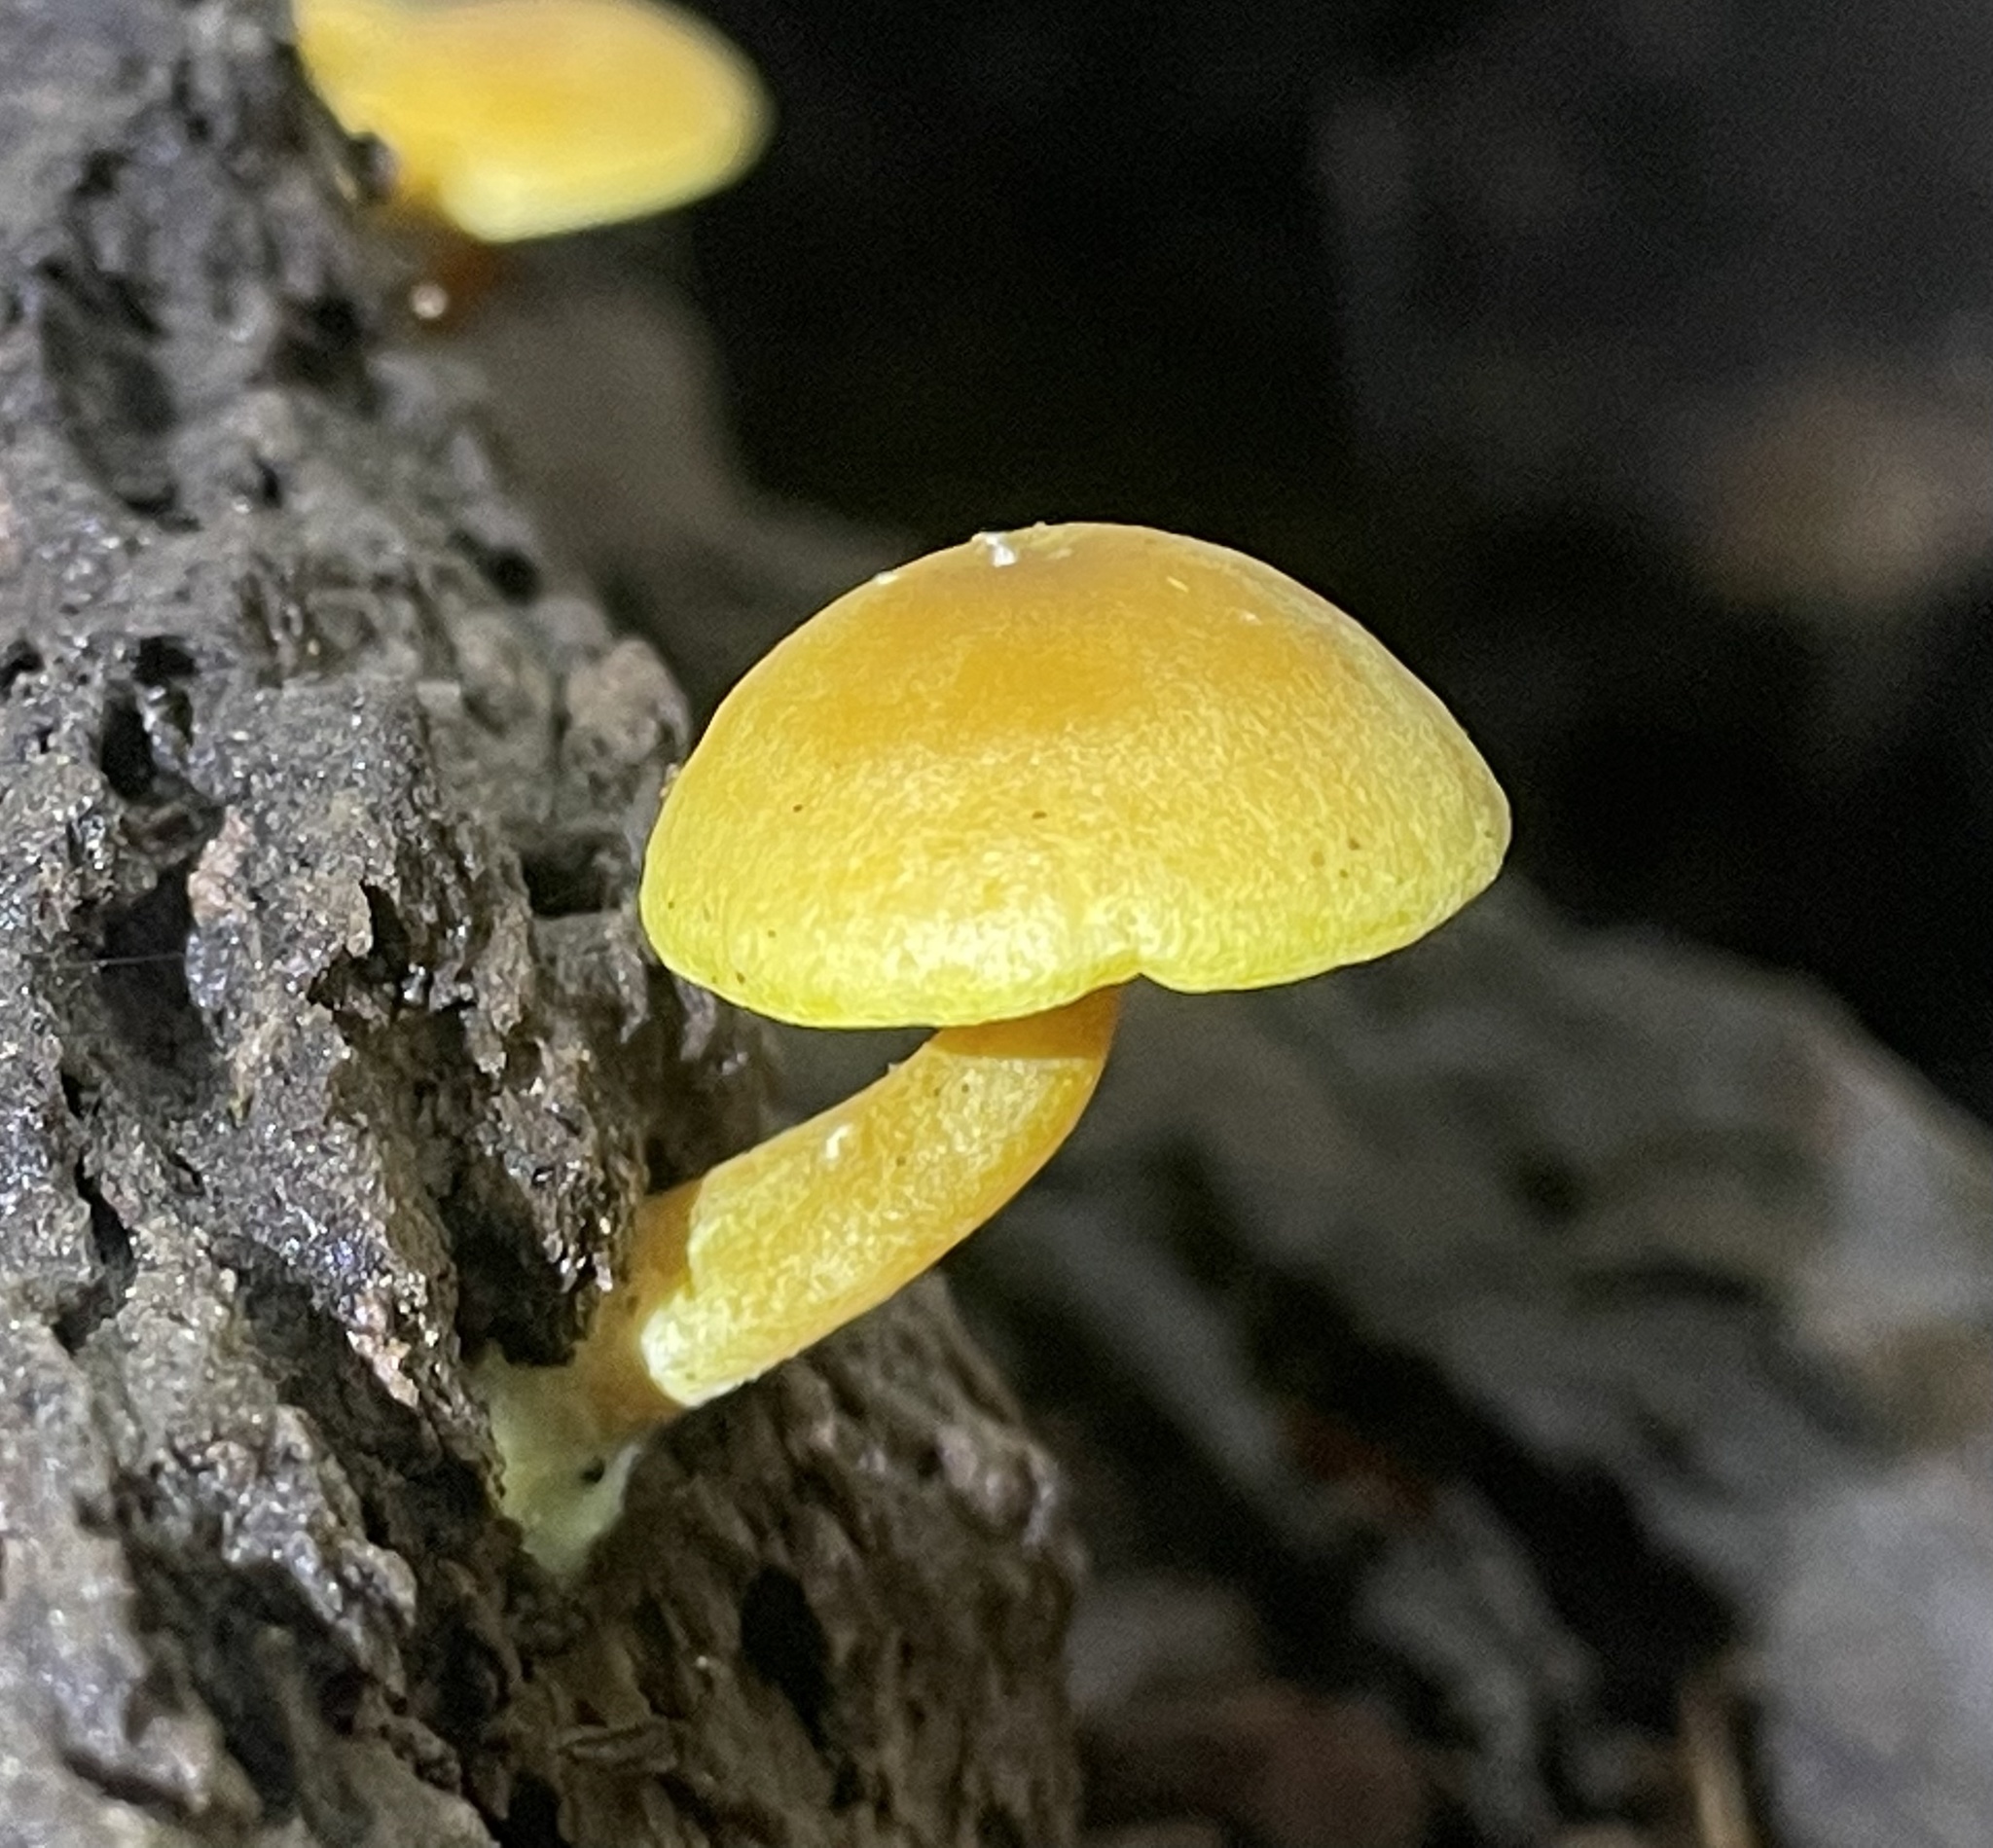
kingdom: Fungi
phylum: Basidiomycota
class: Agaricomycetes
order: Agaricales
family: Tricholomataceae
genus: Tricholomopsis
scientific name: Tricholomopsis sulfureoides
